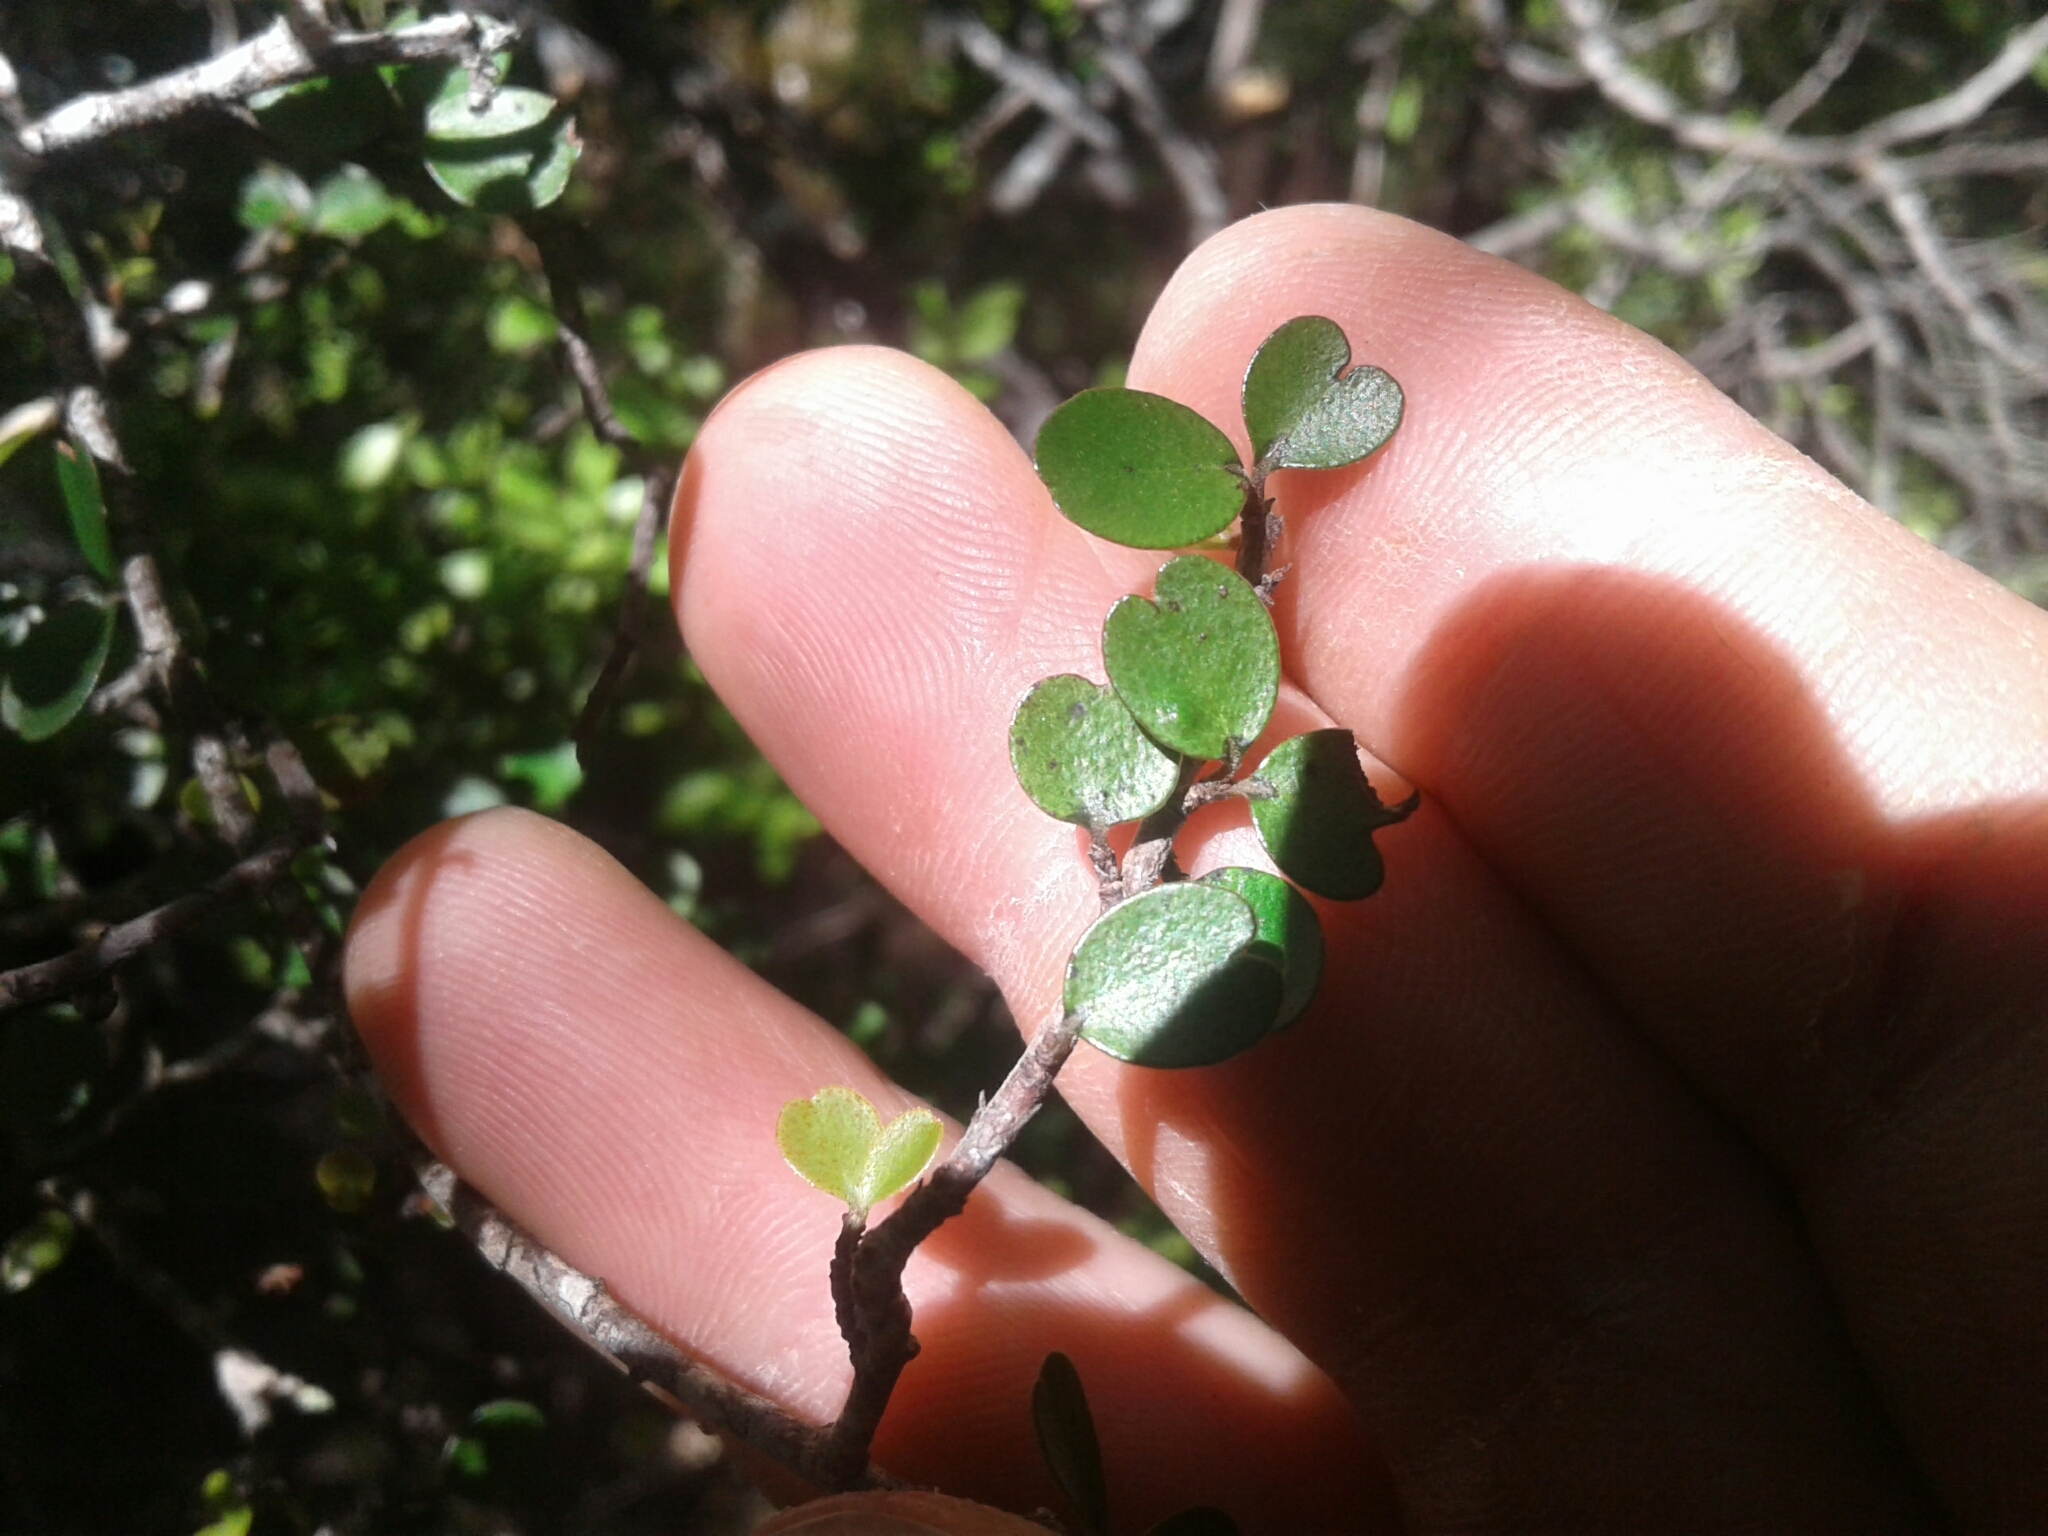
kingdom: Plantae
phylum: Tracheophyta
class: Magnoliopsida
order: Ericales
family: Primulaceae
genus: Myrsine
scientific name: Myrsine divaricata
